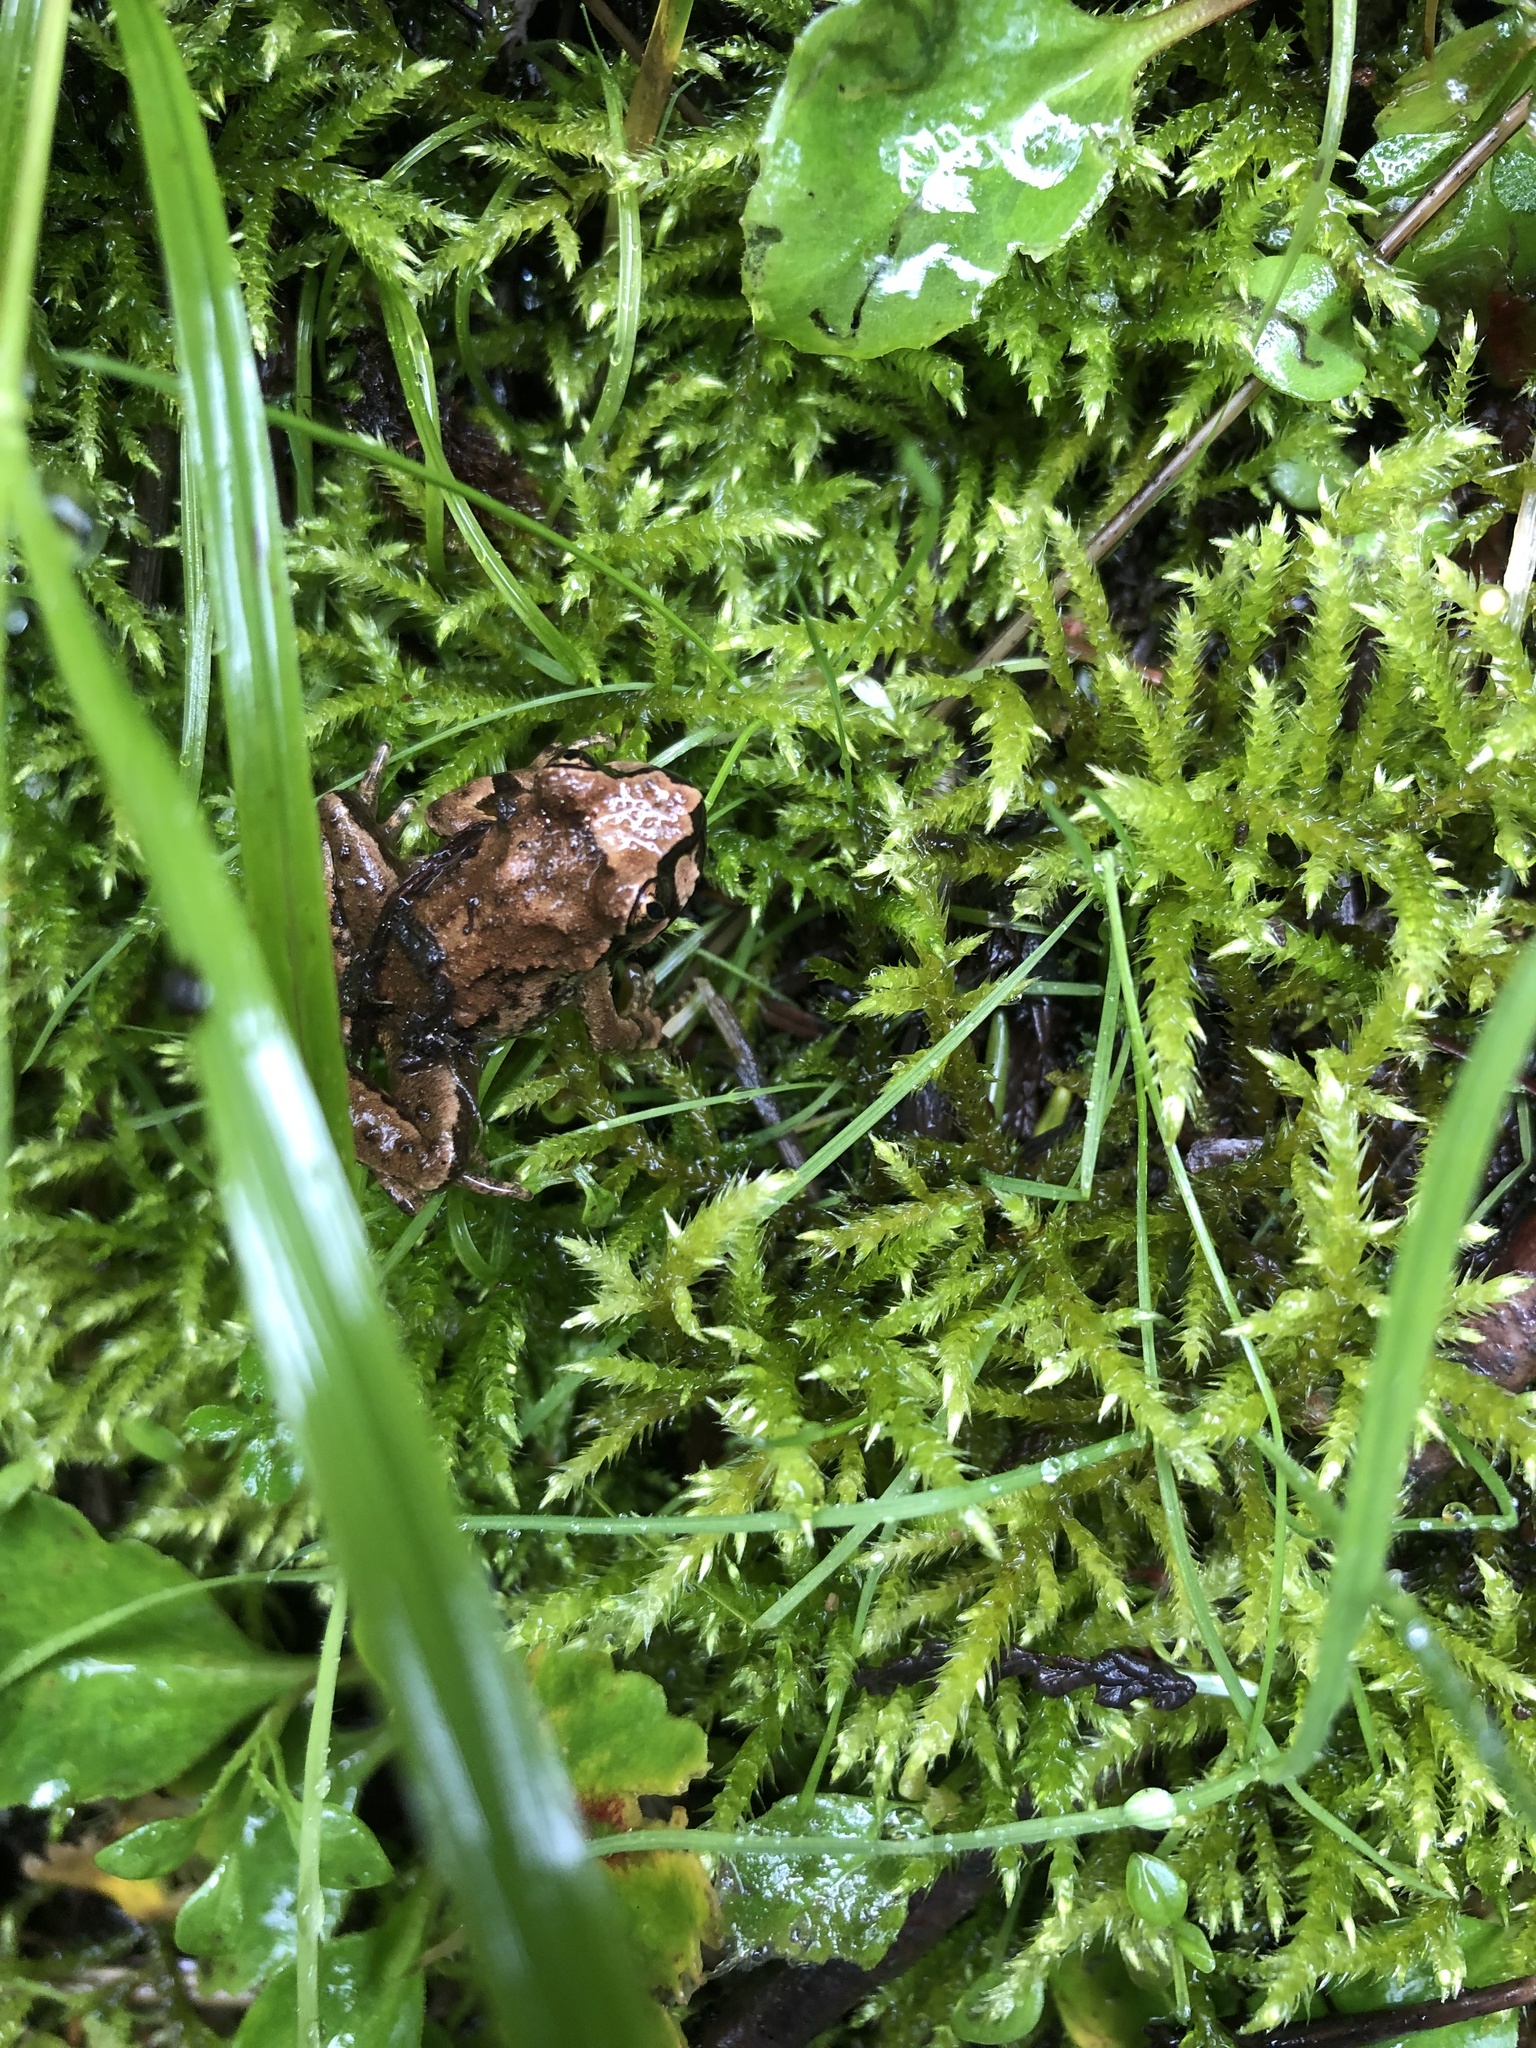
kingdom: Animalia
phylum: Chordata
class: Amphibia
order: Anura
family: Ascaphidae
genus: Ascaphus
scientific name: Ascaphus truei
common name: Tailed frog
